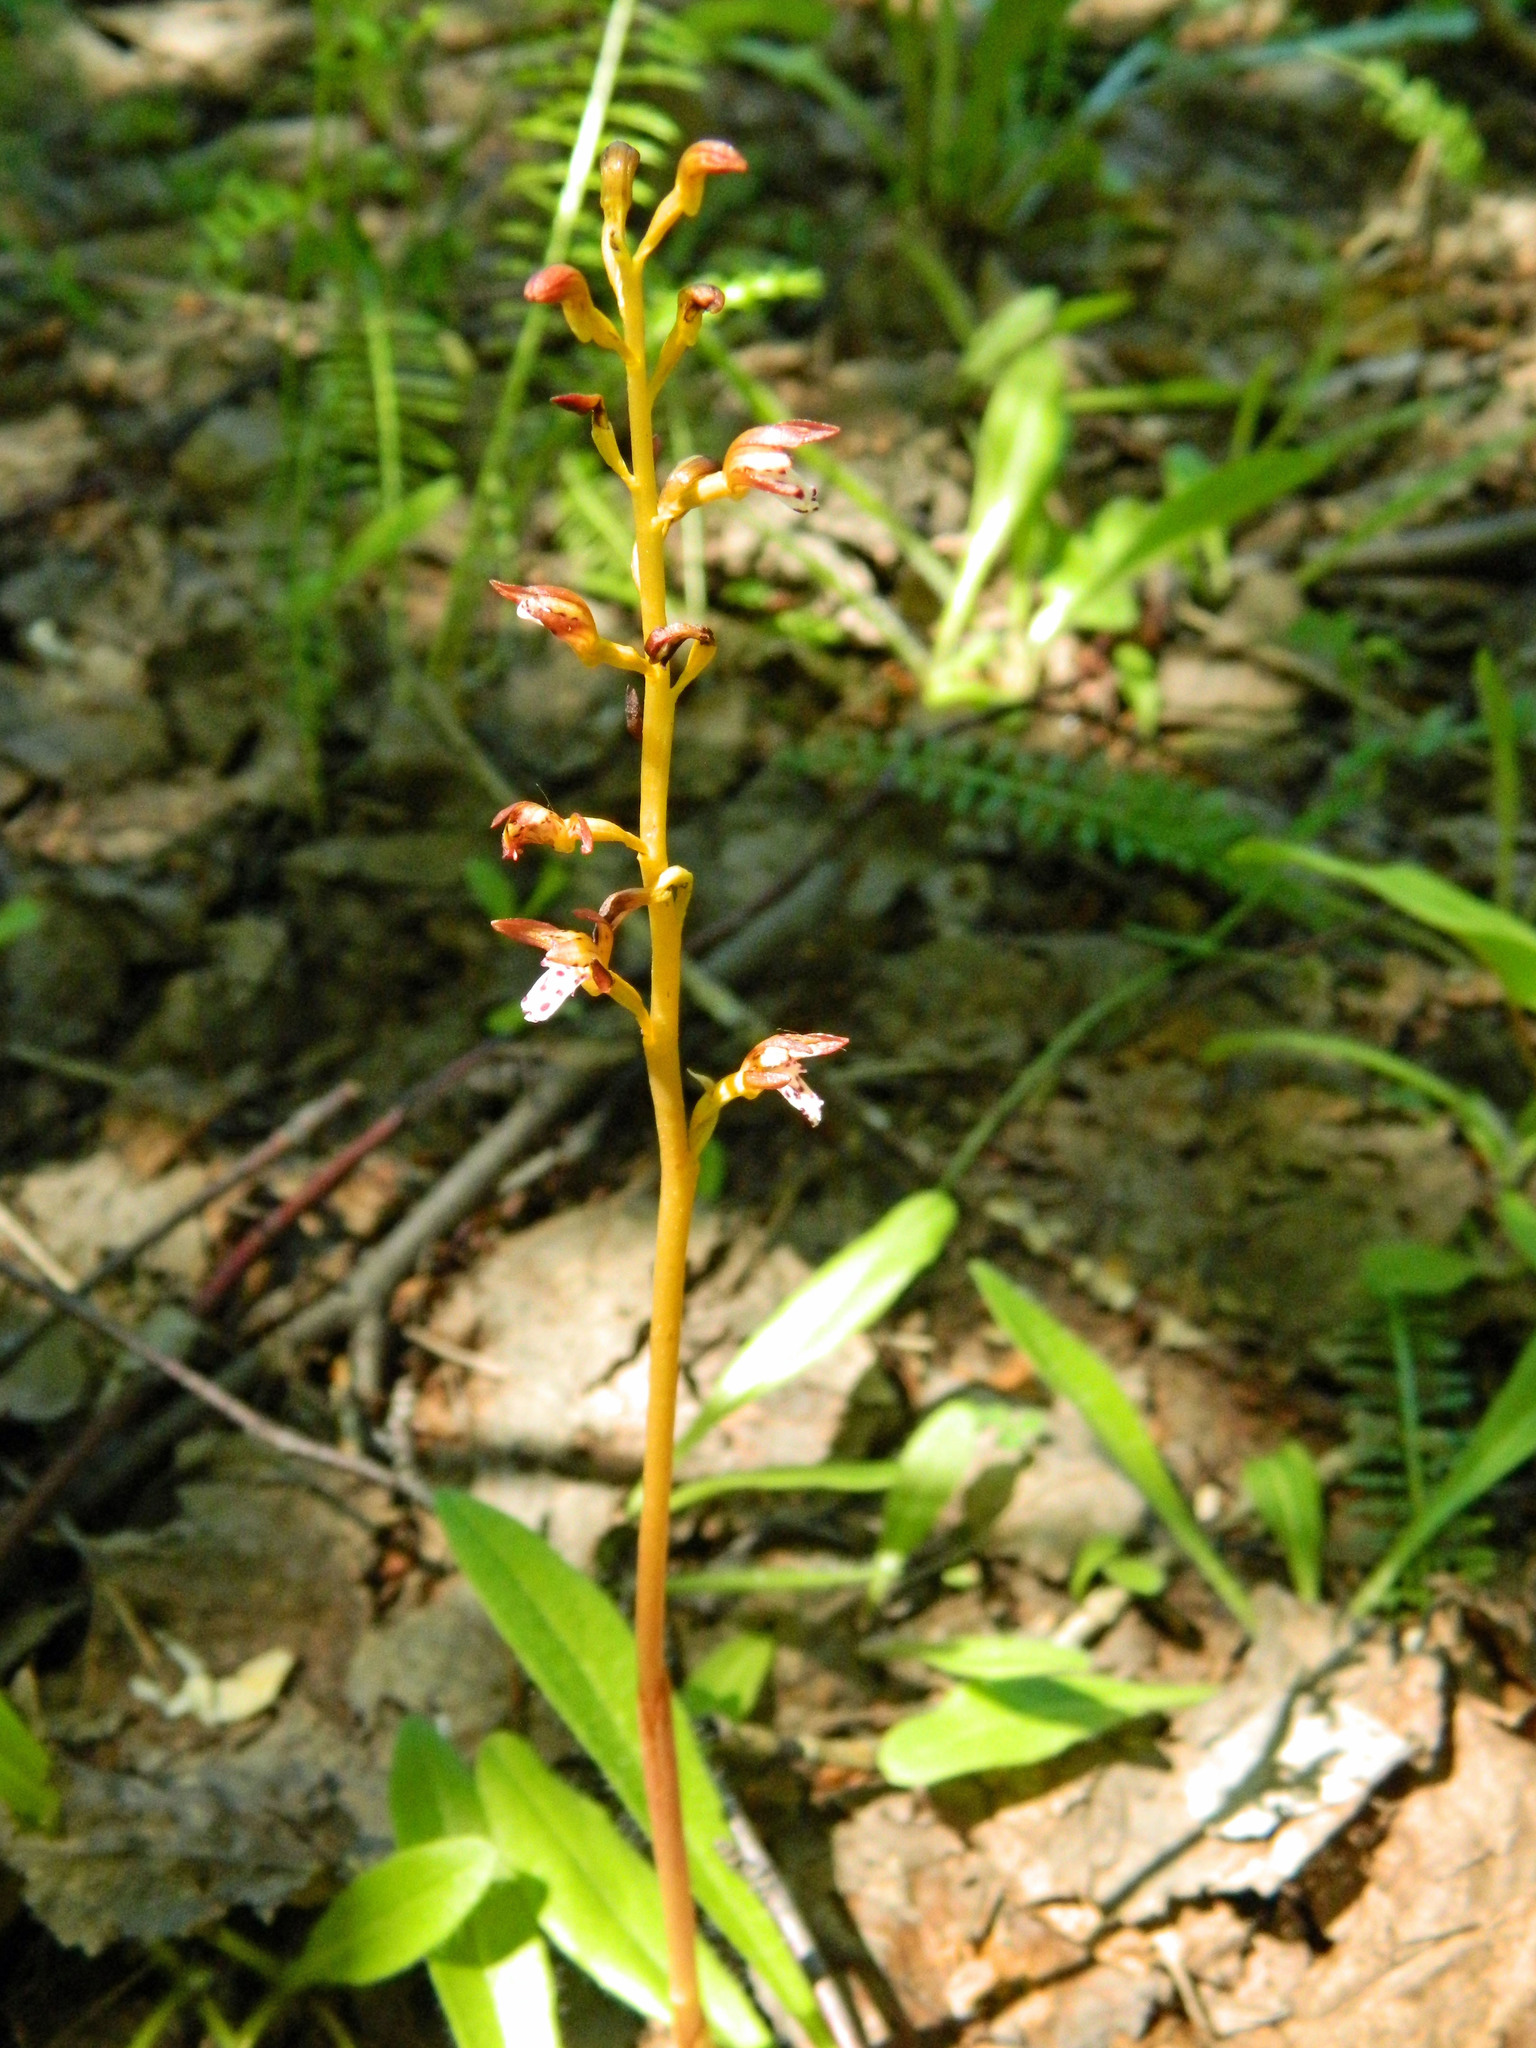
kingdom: Plantae
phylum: Tracheophyta
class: Liliopsida
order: Asparagales
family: Orchidaceae
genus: Corallorhiza
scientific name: Corallorhiza maculata
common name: Spotted coralroot
